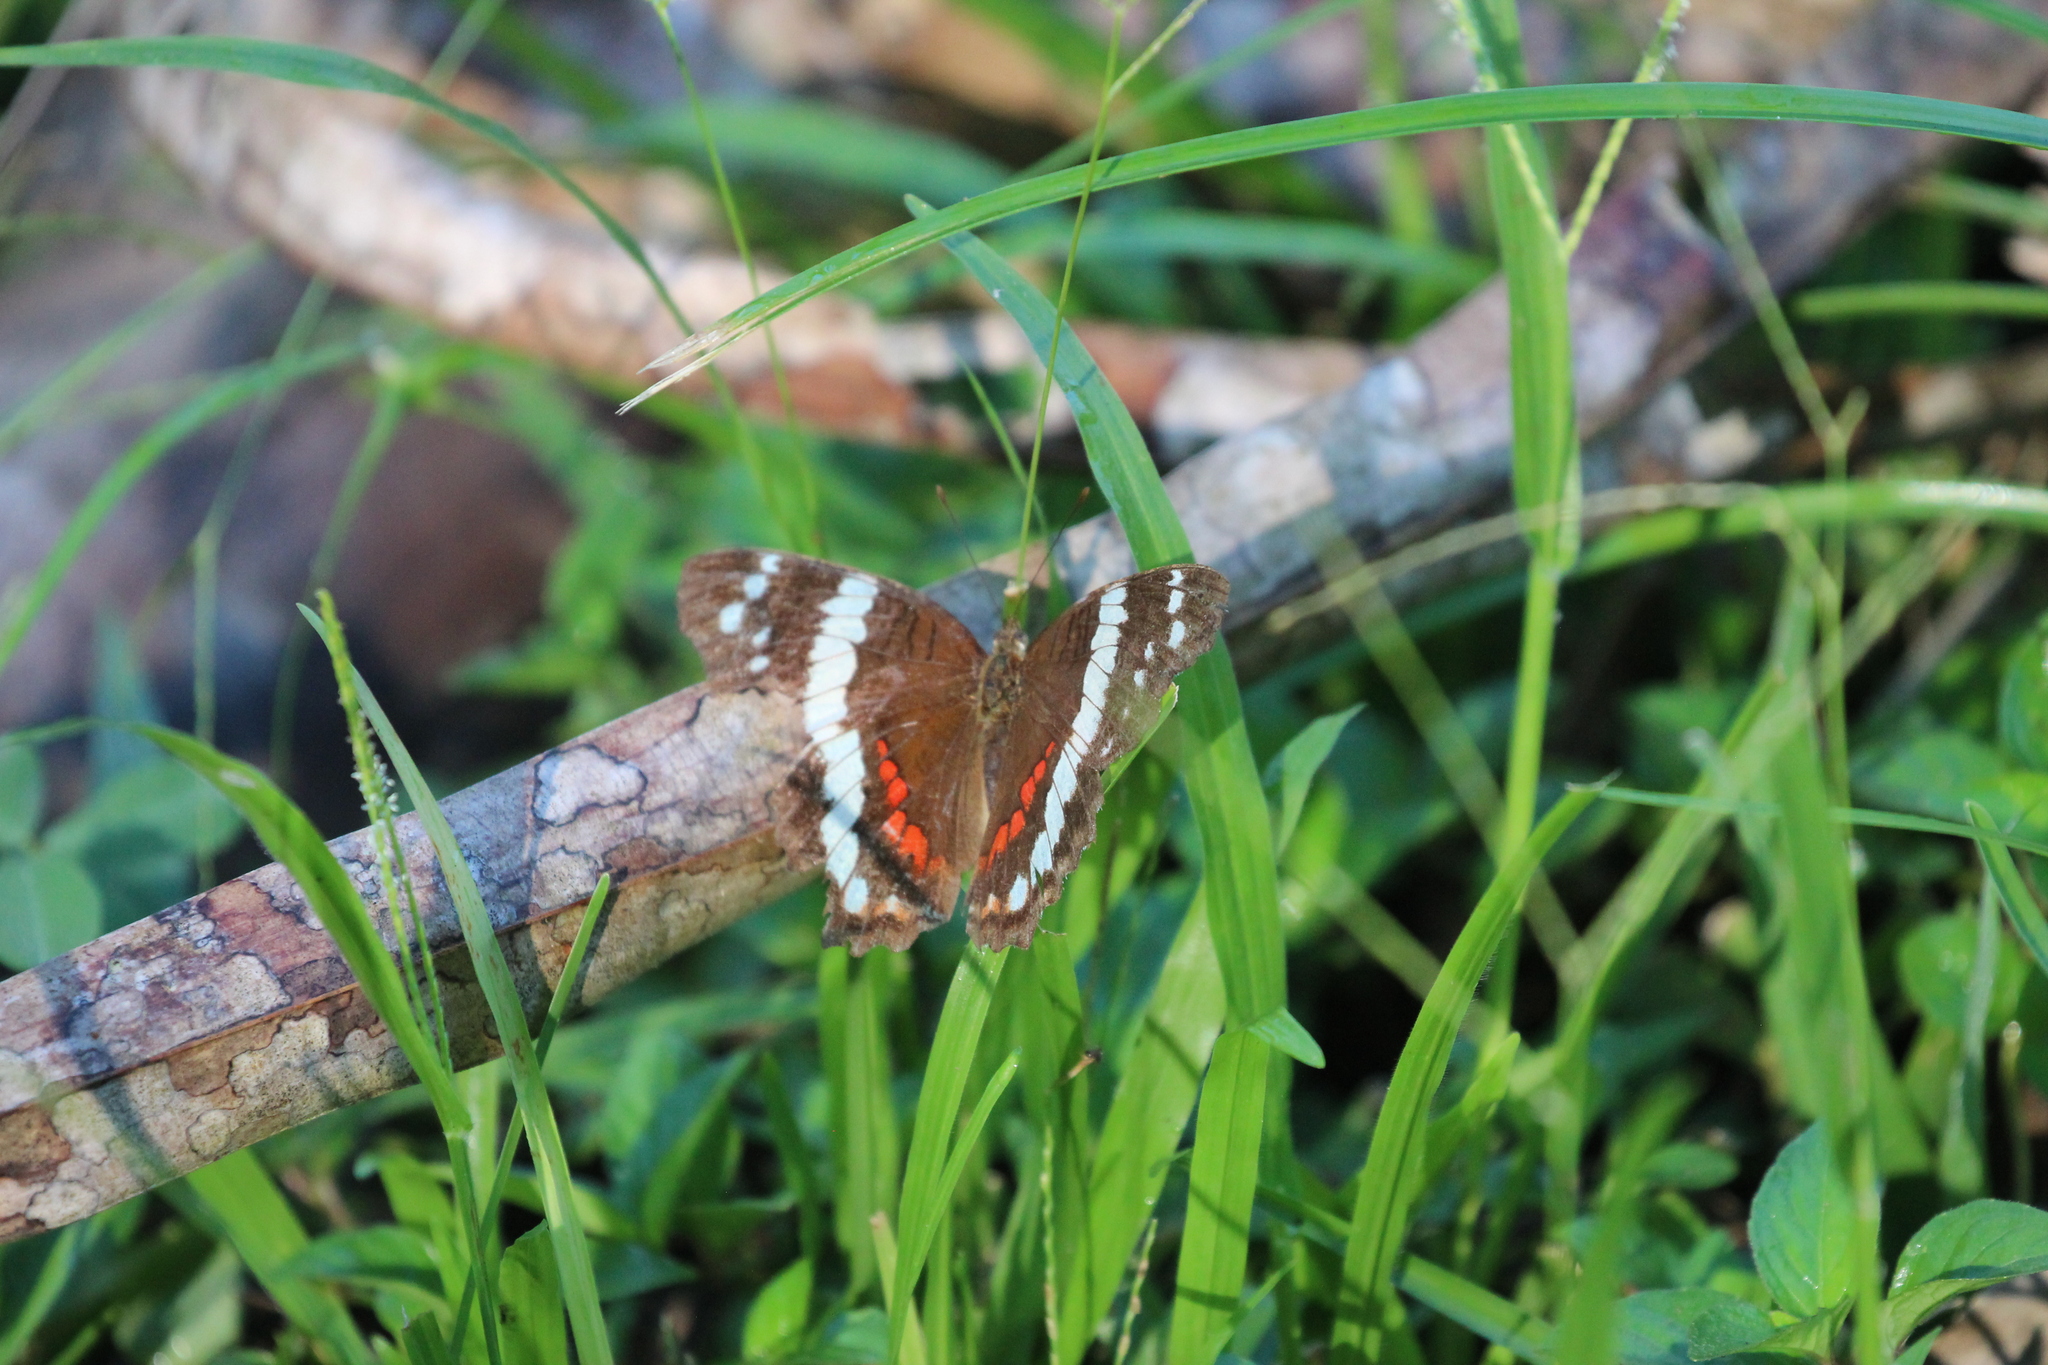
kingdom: Animalia
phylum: Arthropoda
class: Insecta
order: Lepidoptera
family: Nymphalidae
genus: Anartia
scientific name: Anartia fatima
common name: Banded peacock
